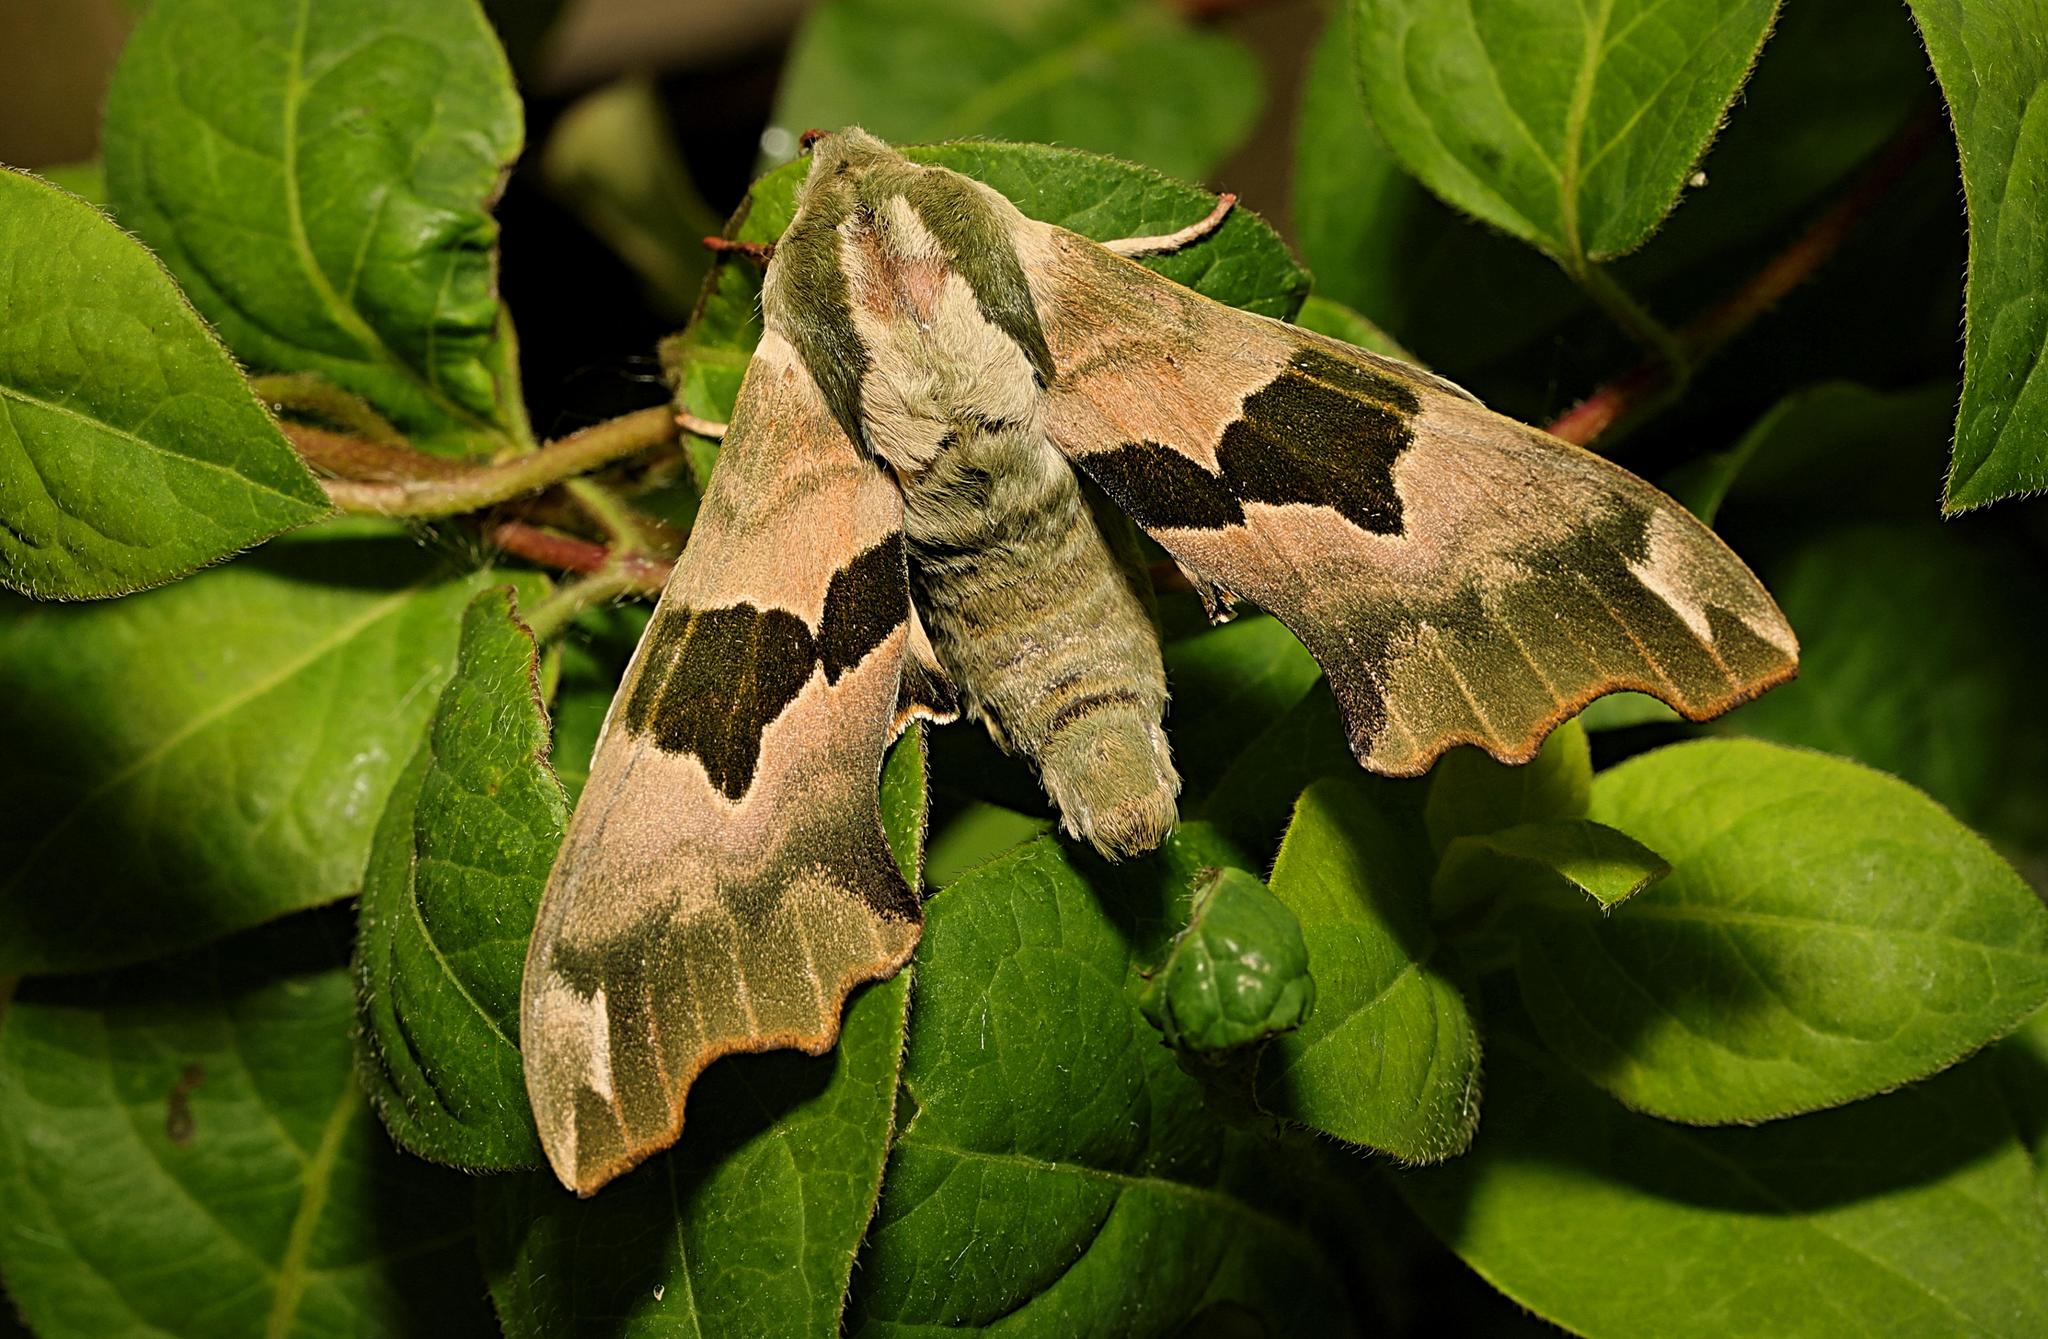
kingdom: Animalia
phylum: Arthropoda
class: Insecta
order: Lepidoptera
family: Sphingidae
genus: Mimas
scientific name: Mimas tiliae
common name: Lime hawk-moth
